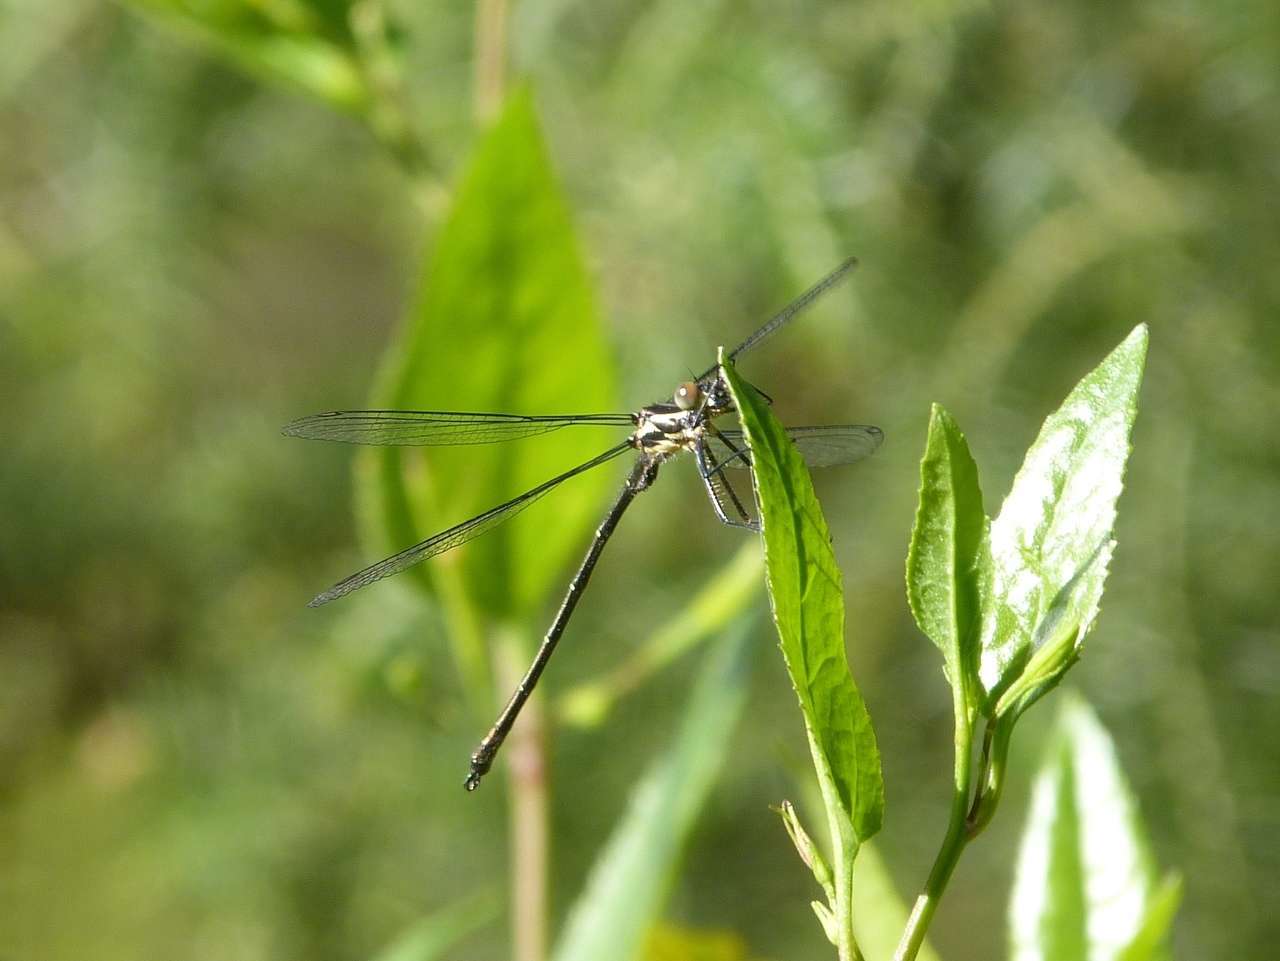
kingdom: Animalia
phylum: Arthropoda
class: Insecta
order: Odonata
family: Argiolestidae
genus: Austroargiolestes
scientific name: Austroargiolestes icteromelas
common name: Common flatwing
